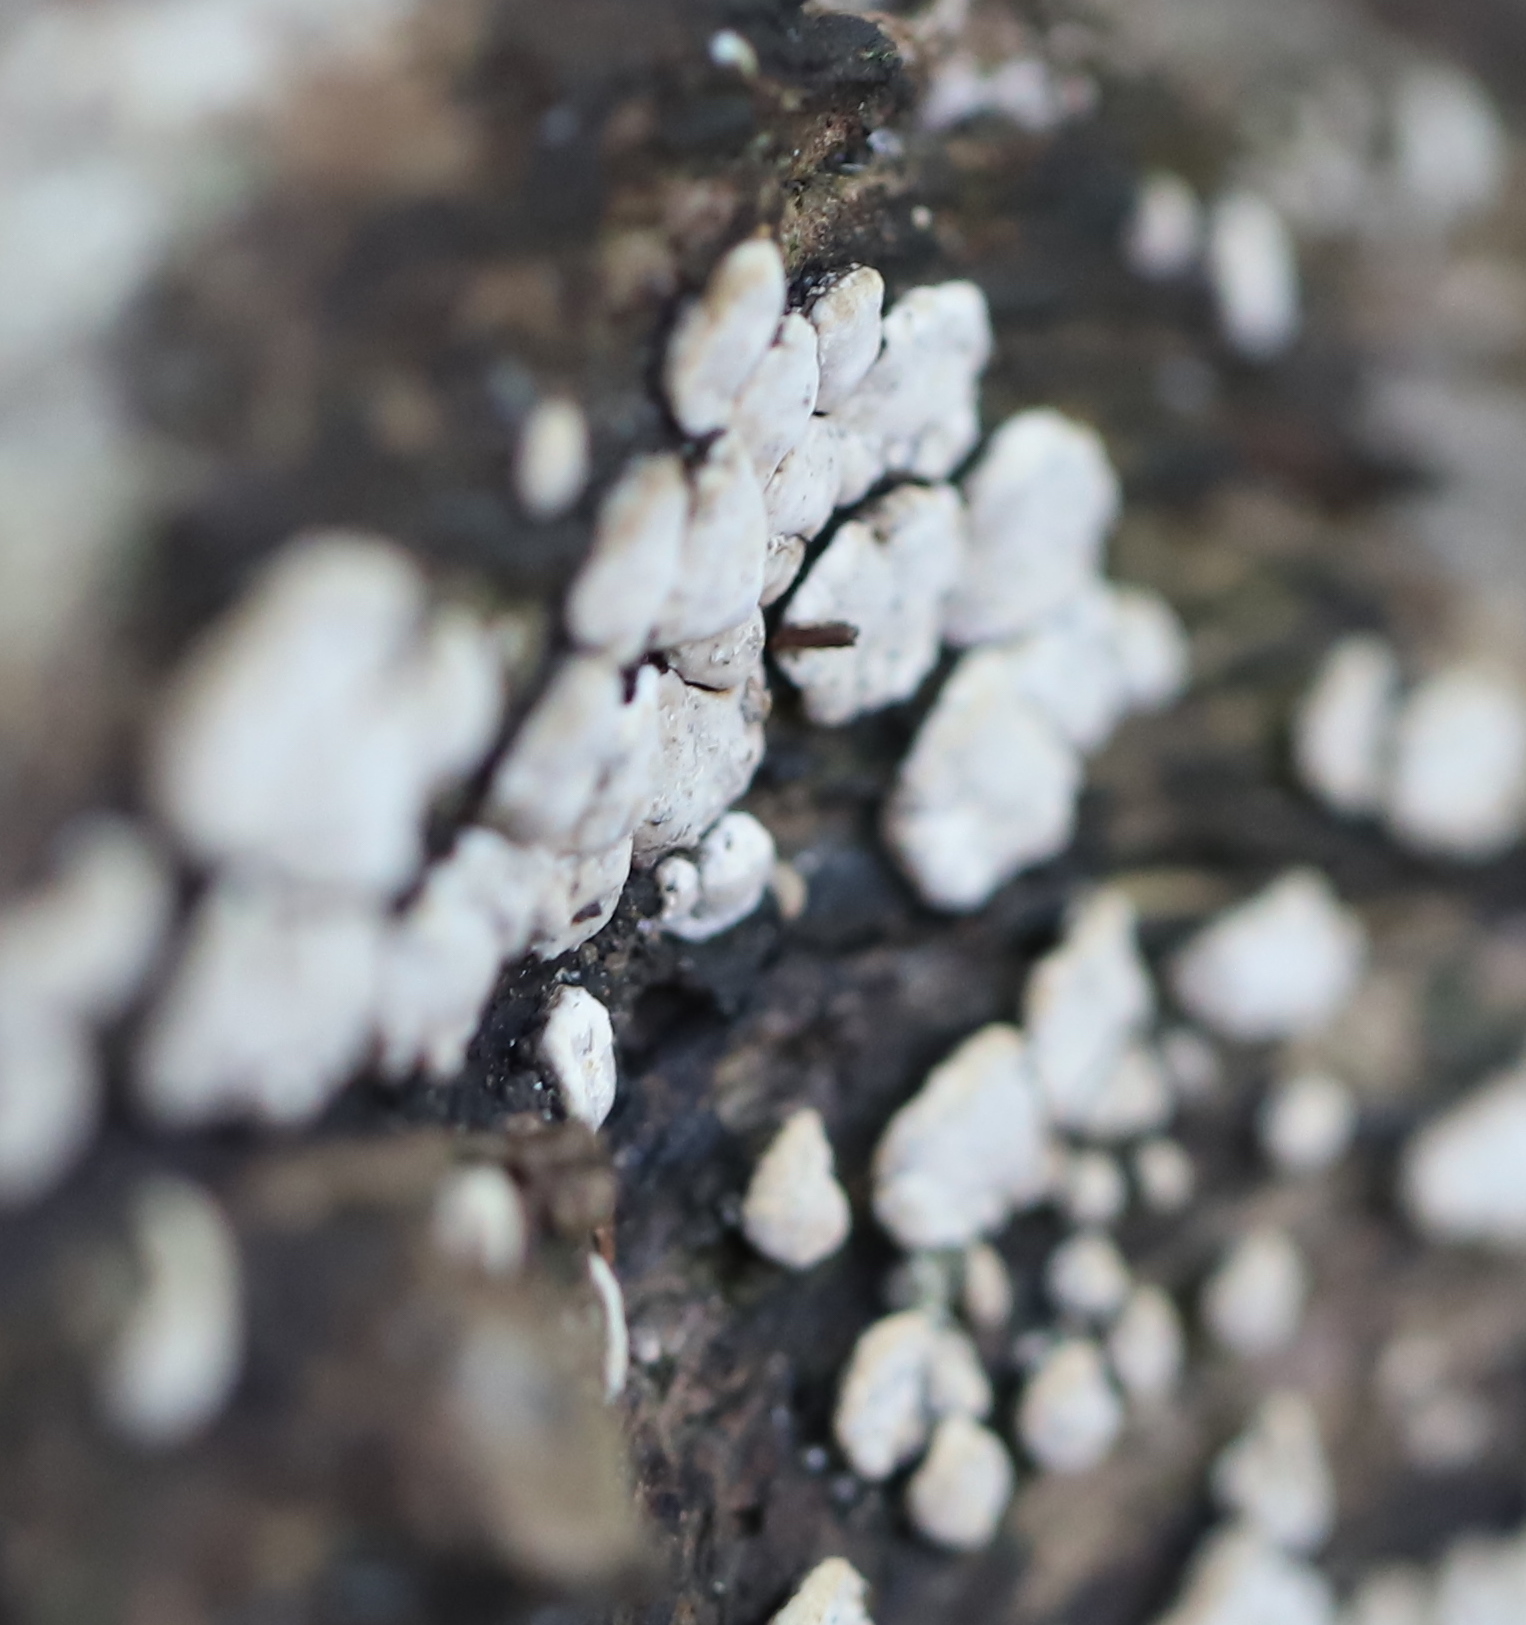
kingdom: Fungi
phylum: Basidiomycota
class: Agaricomycetes
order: Russulales
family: Stereaceae
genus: Xylobolus
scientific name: Xylobolus frustulatus
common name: Ceramic parchment
